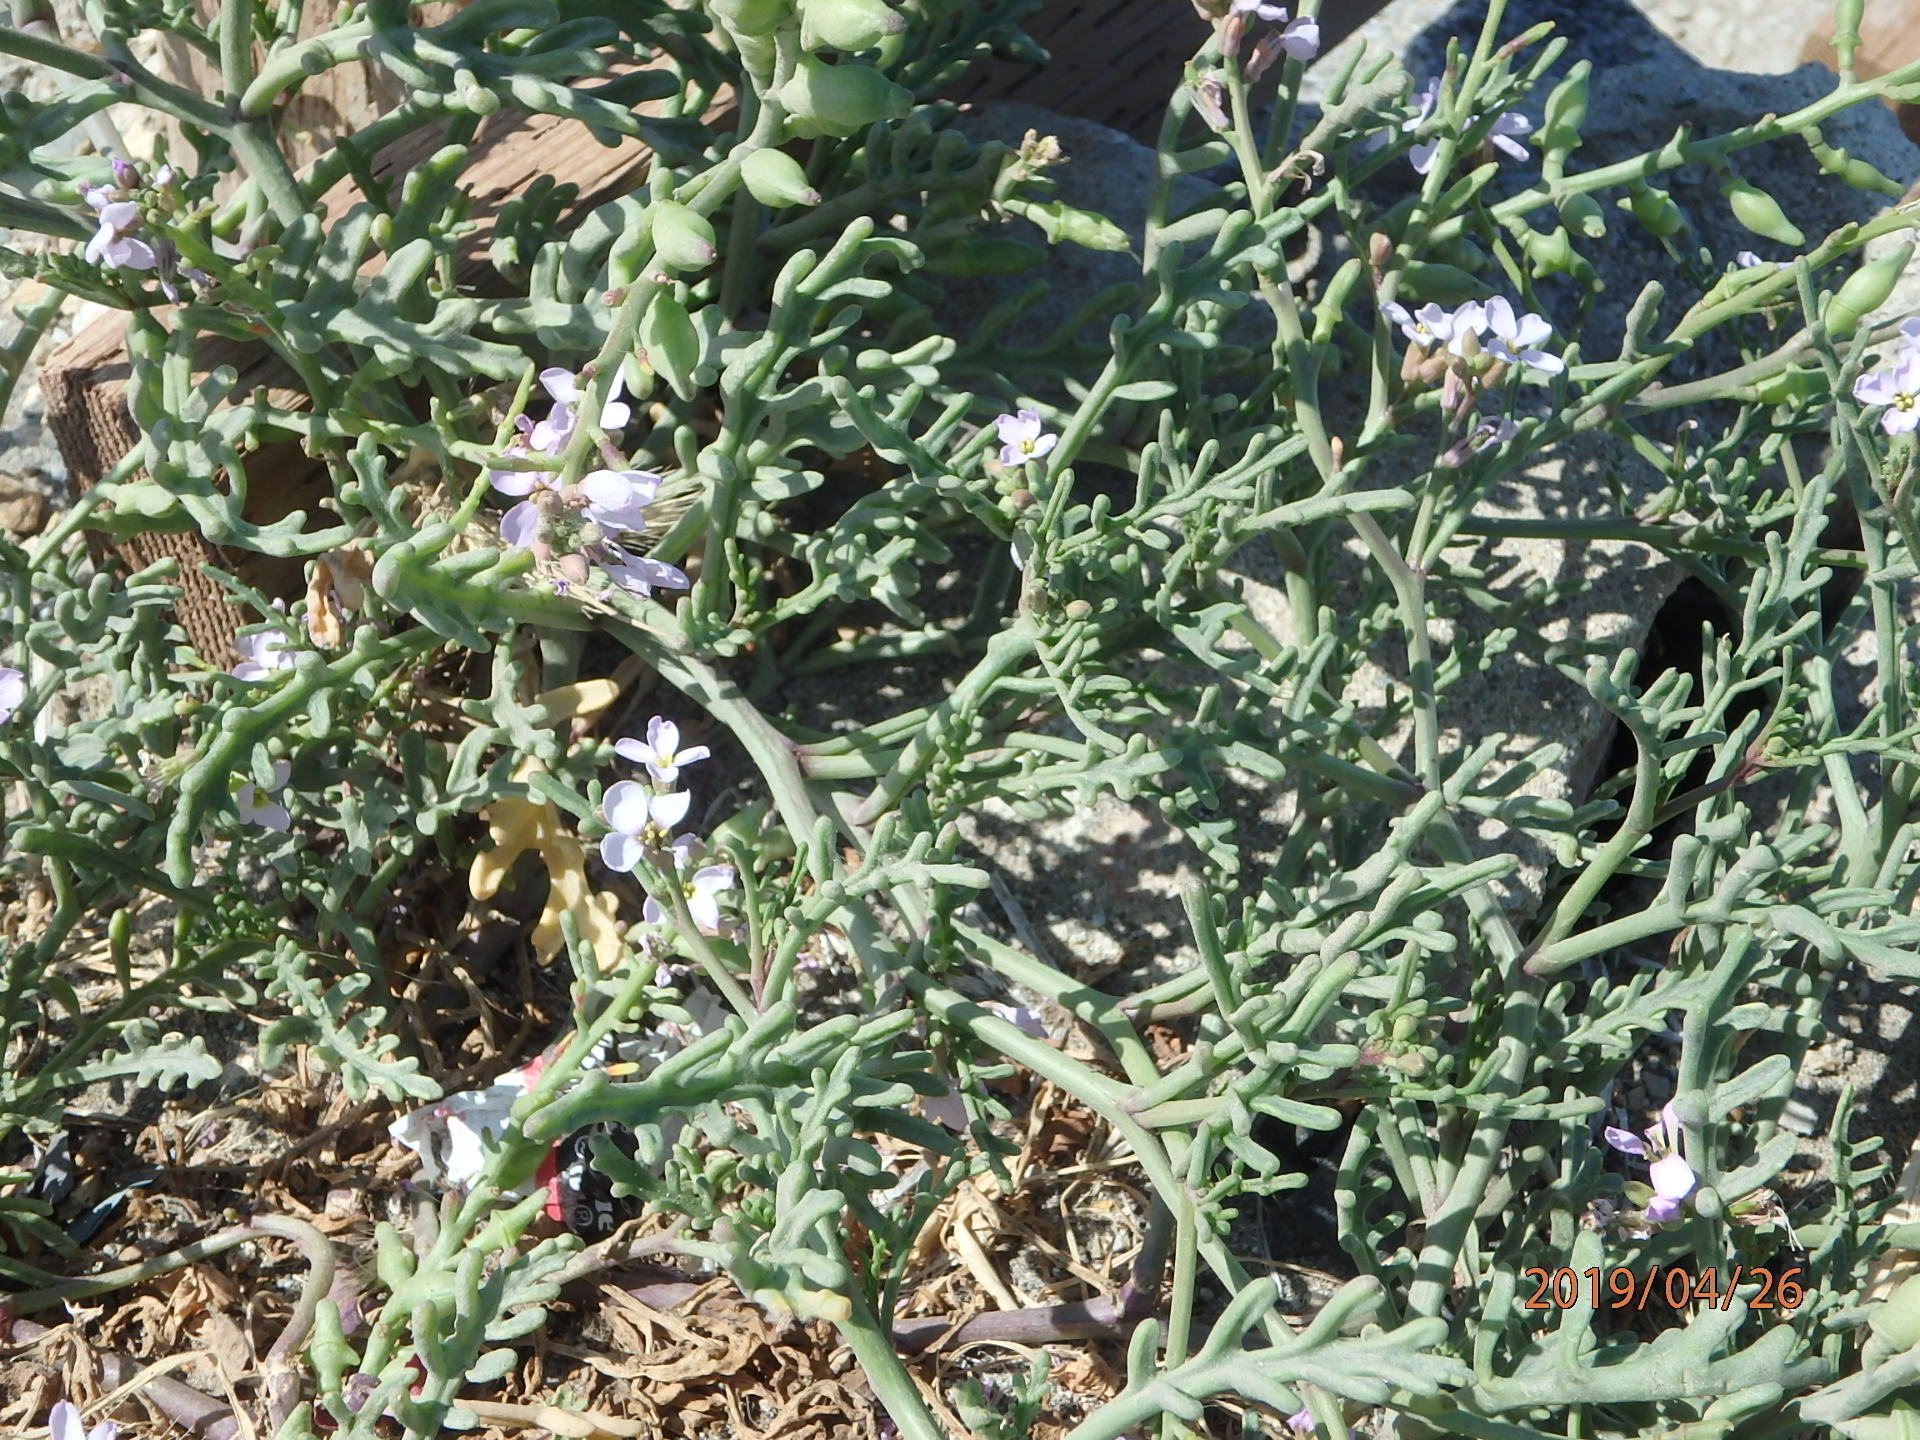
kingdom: Plantae
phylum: Tracheophyta
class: Magnoliopsida
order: Brassicales
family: Brassicaceae
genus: Cakile
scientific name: Cakile maritima
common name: Sea rocket
